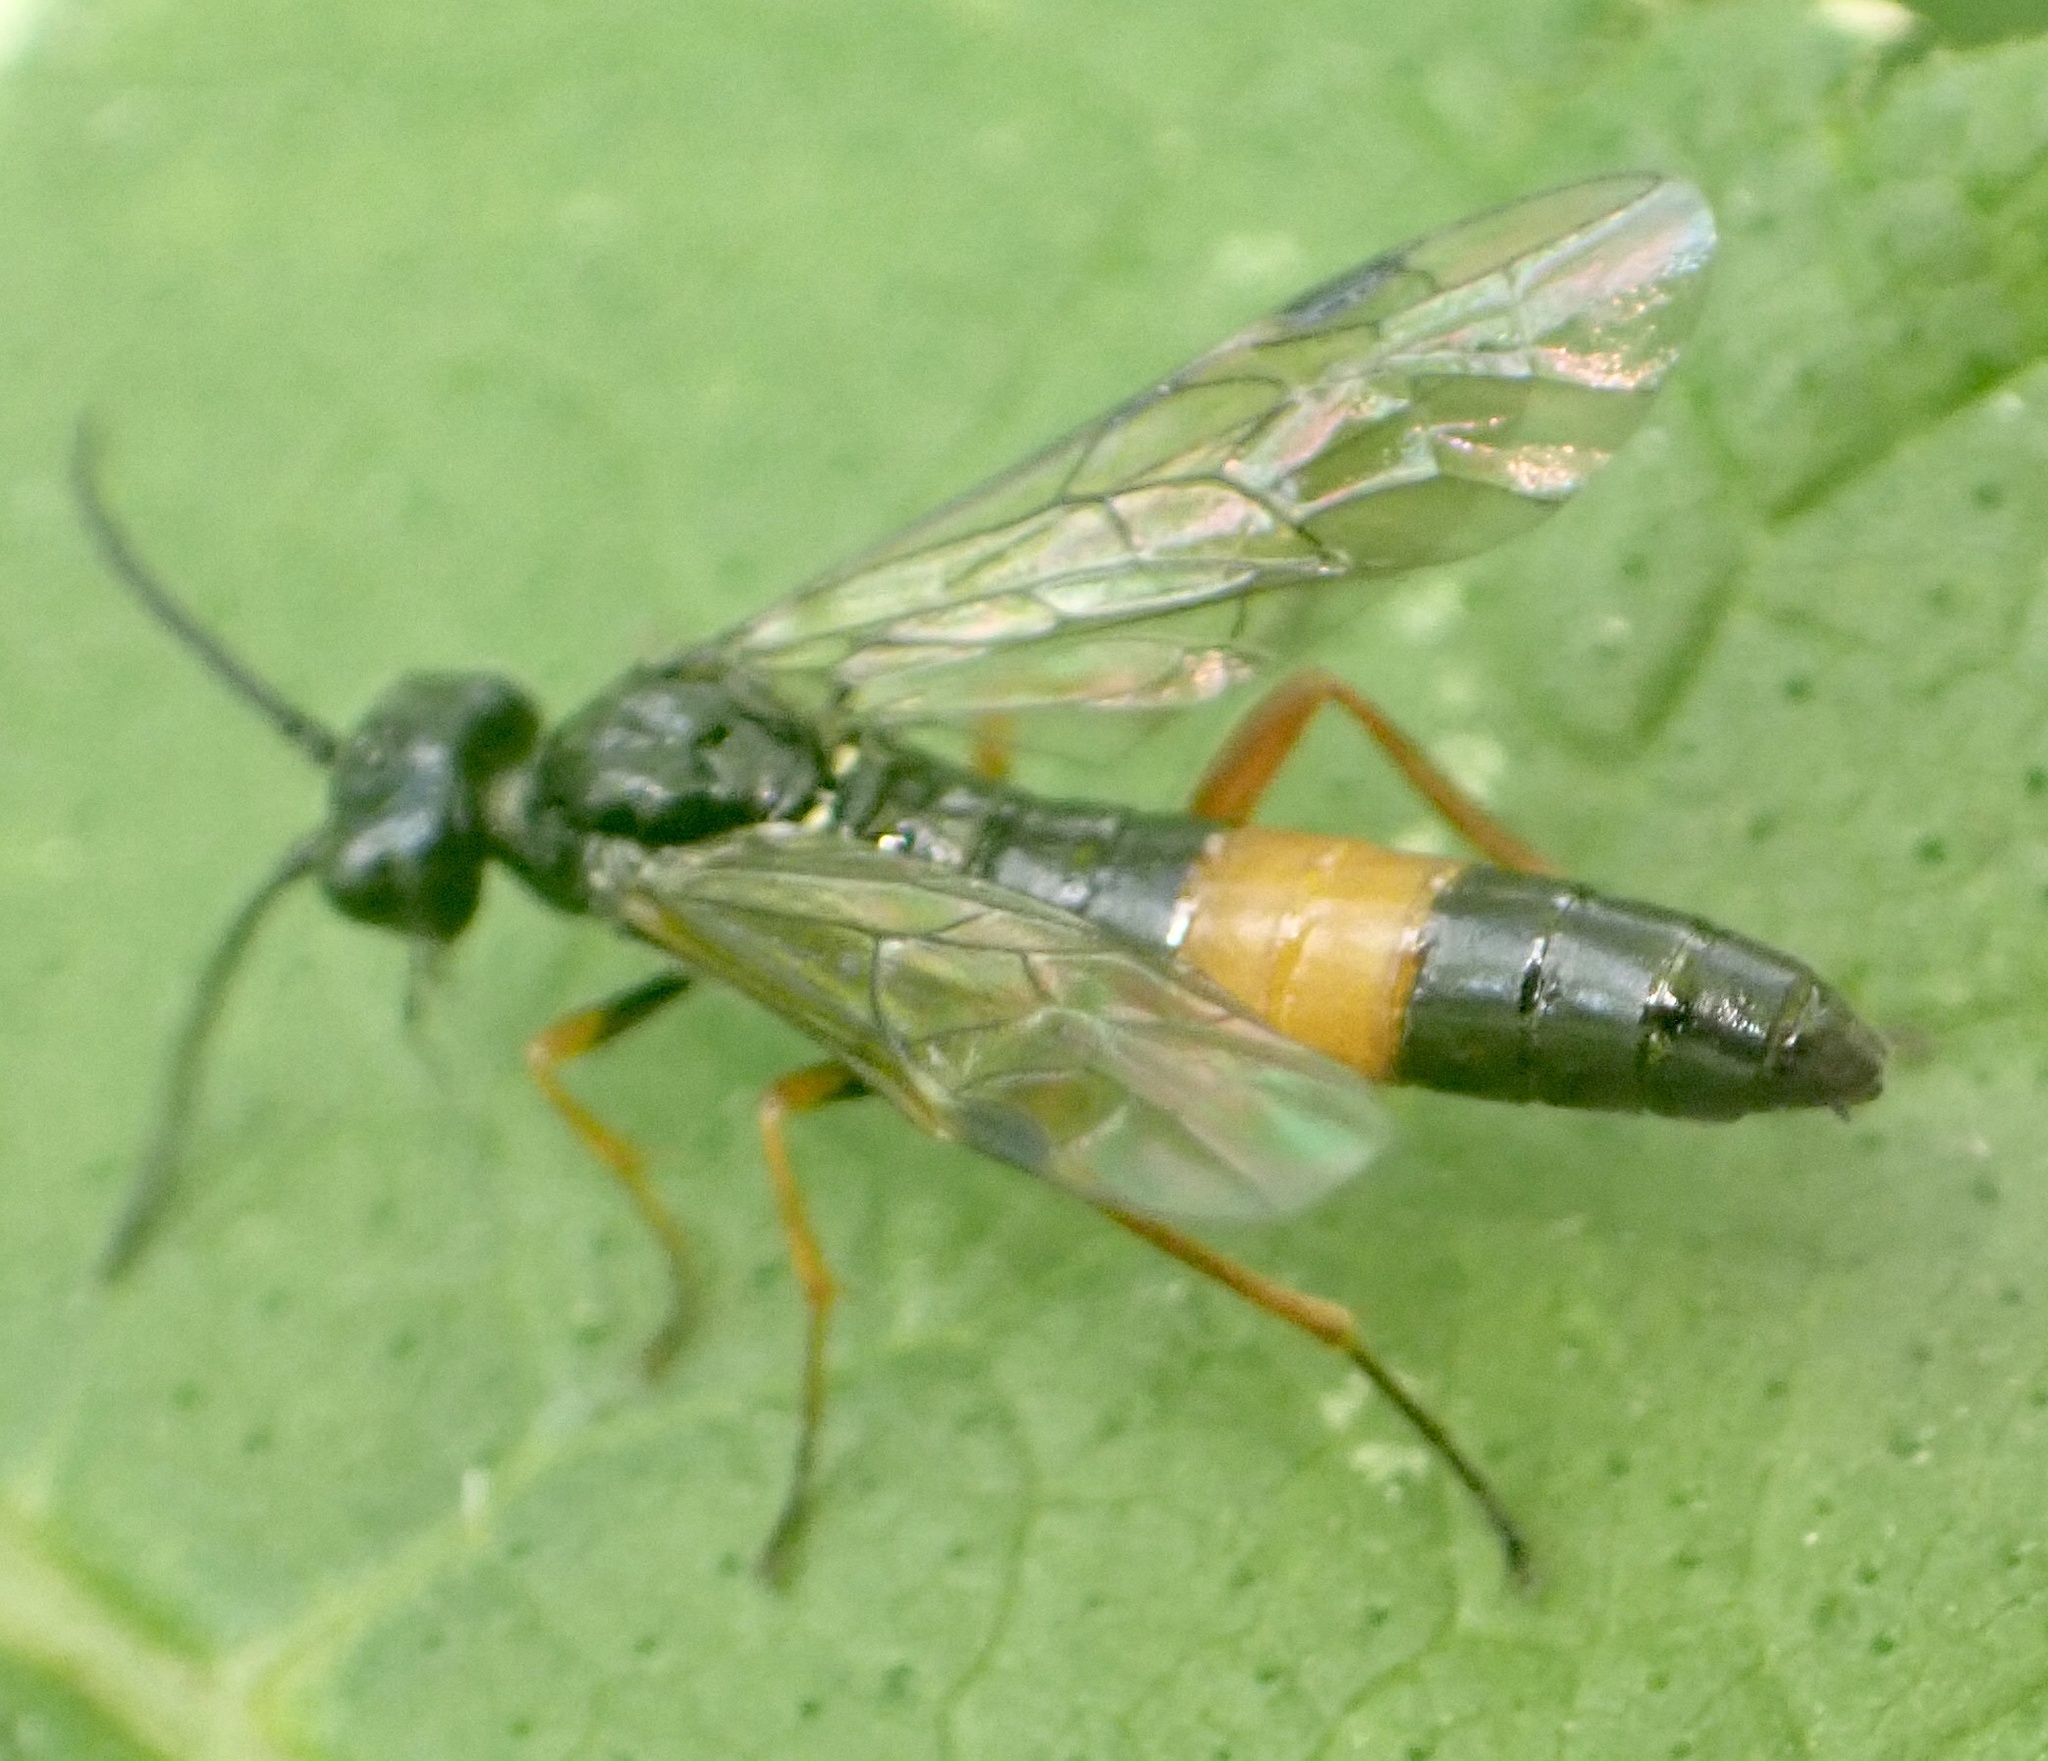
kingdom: Animalia
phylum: Arthropoda
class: Insecta
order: Hymenoptera
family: Tenthredinidae
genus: Allantus
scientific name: Allantus calceatus
